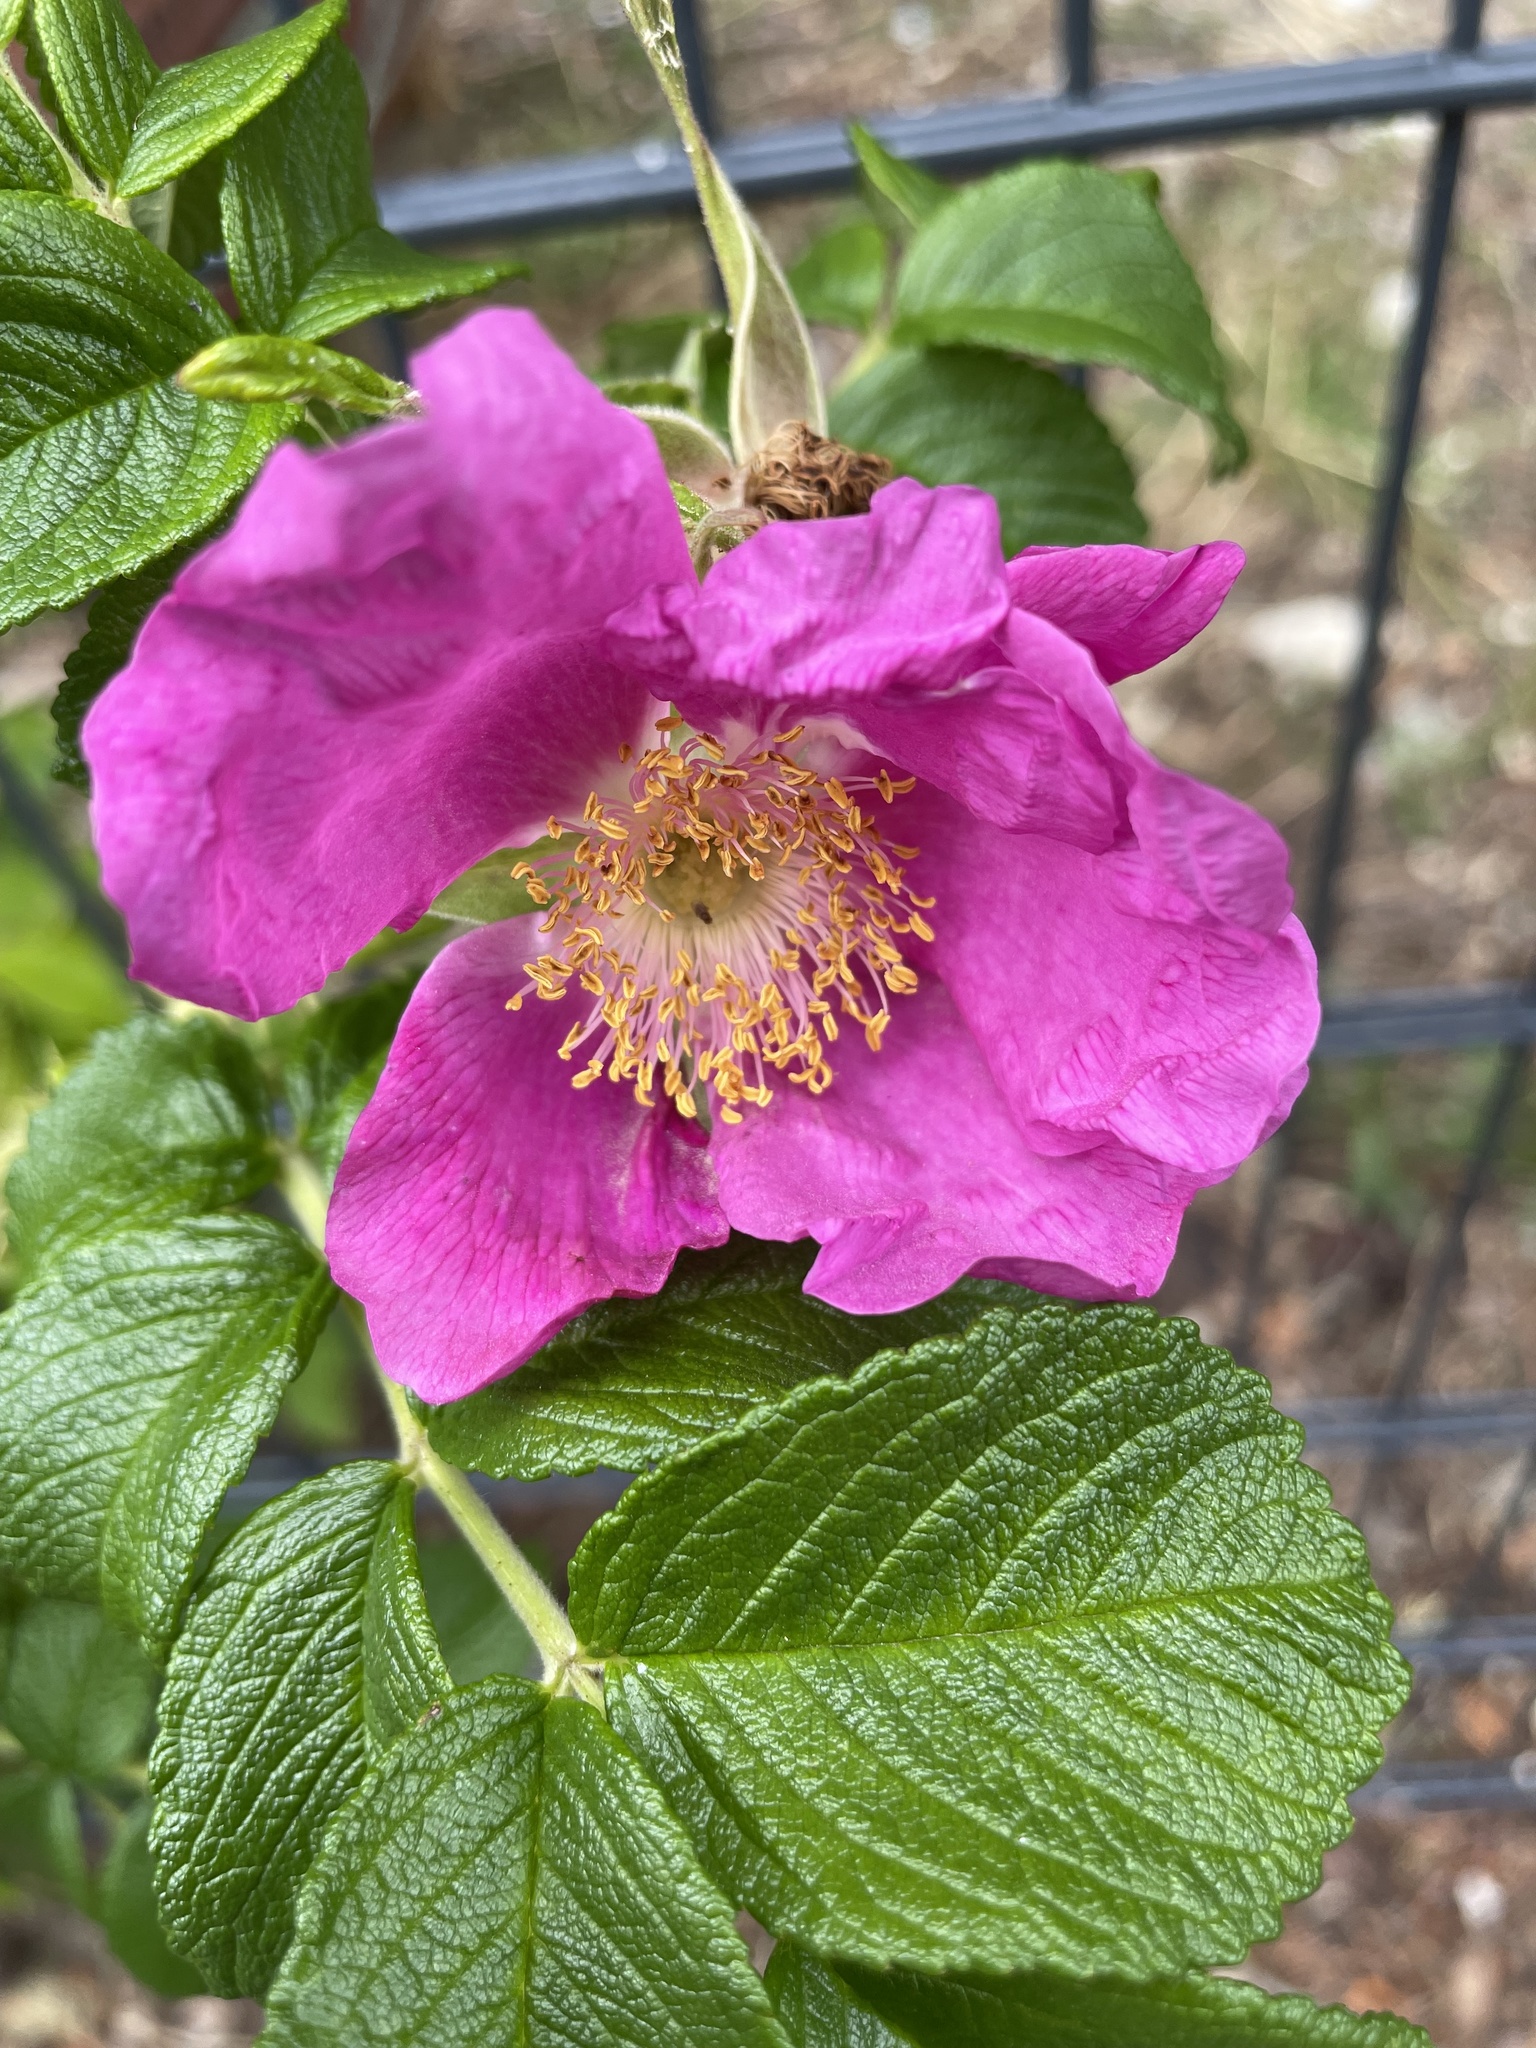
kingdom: Plantae
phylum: Tracheophyta
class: Magnoliopsida
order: Rosales
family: Rosaceae
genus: Rosa
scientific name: Rosa rugosa
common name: Japanese rose
